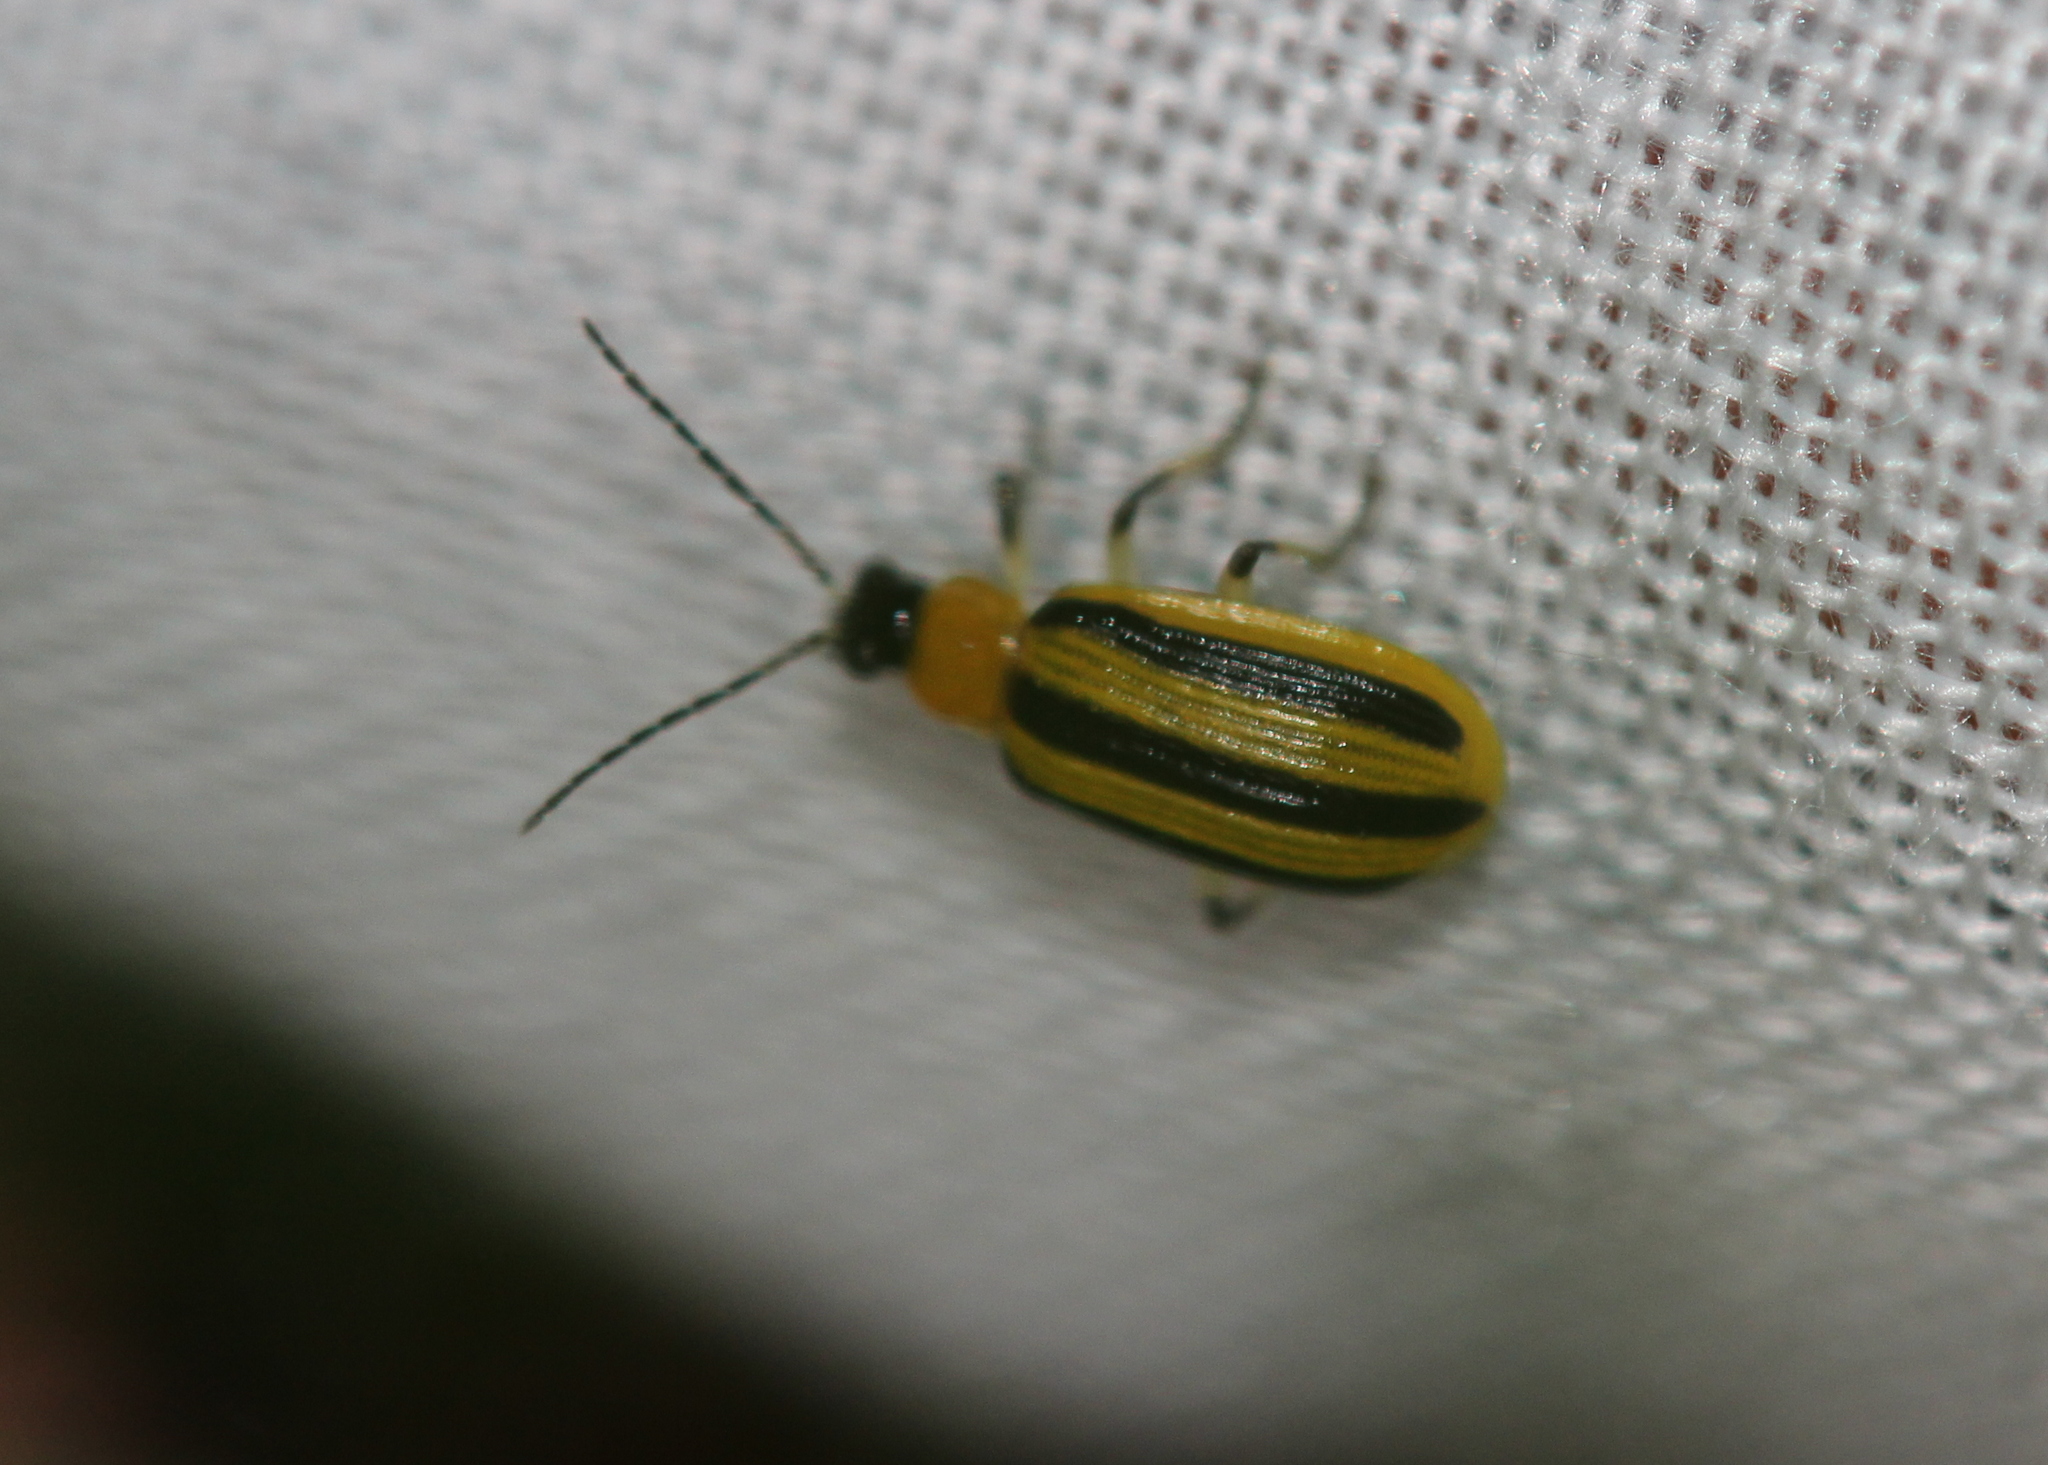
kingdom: Animalia
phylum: Arthropoda
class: Insecta
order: Coleoptera
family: Chrysomelidae
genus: Acalymma
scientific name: Acalymma vittatum
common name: Striped cucumber beetle
